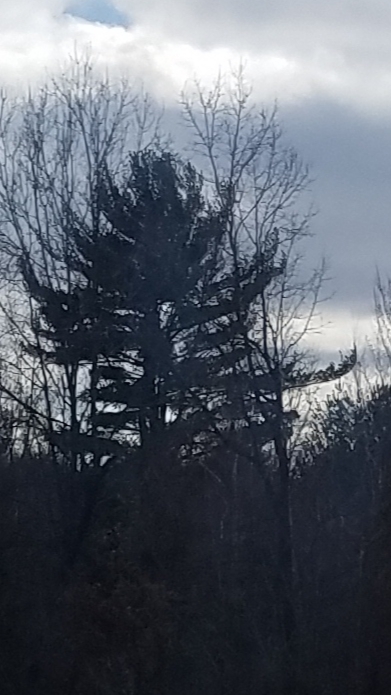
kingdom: Plantae
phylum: Tracheophyta
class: Pinopsida
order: Pinales
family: Pinaceae
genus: Pinus
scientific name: Pinus strobus
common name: Weymouth pine
